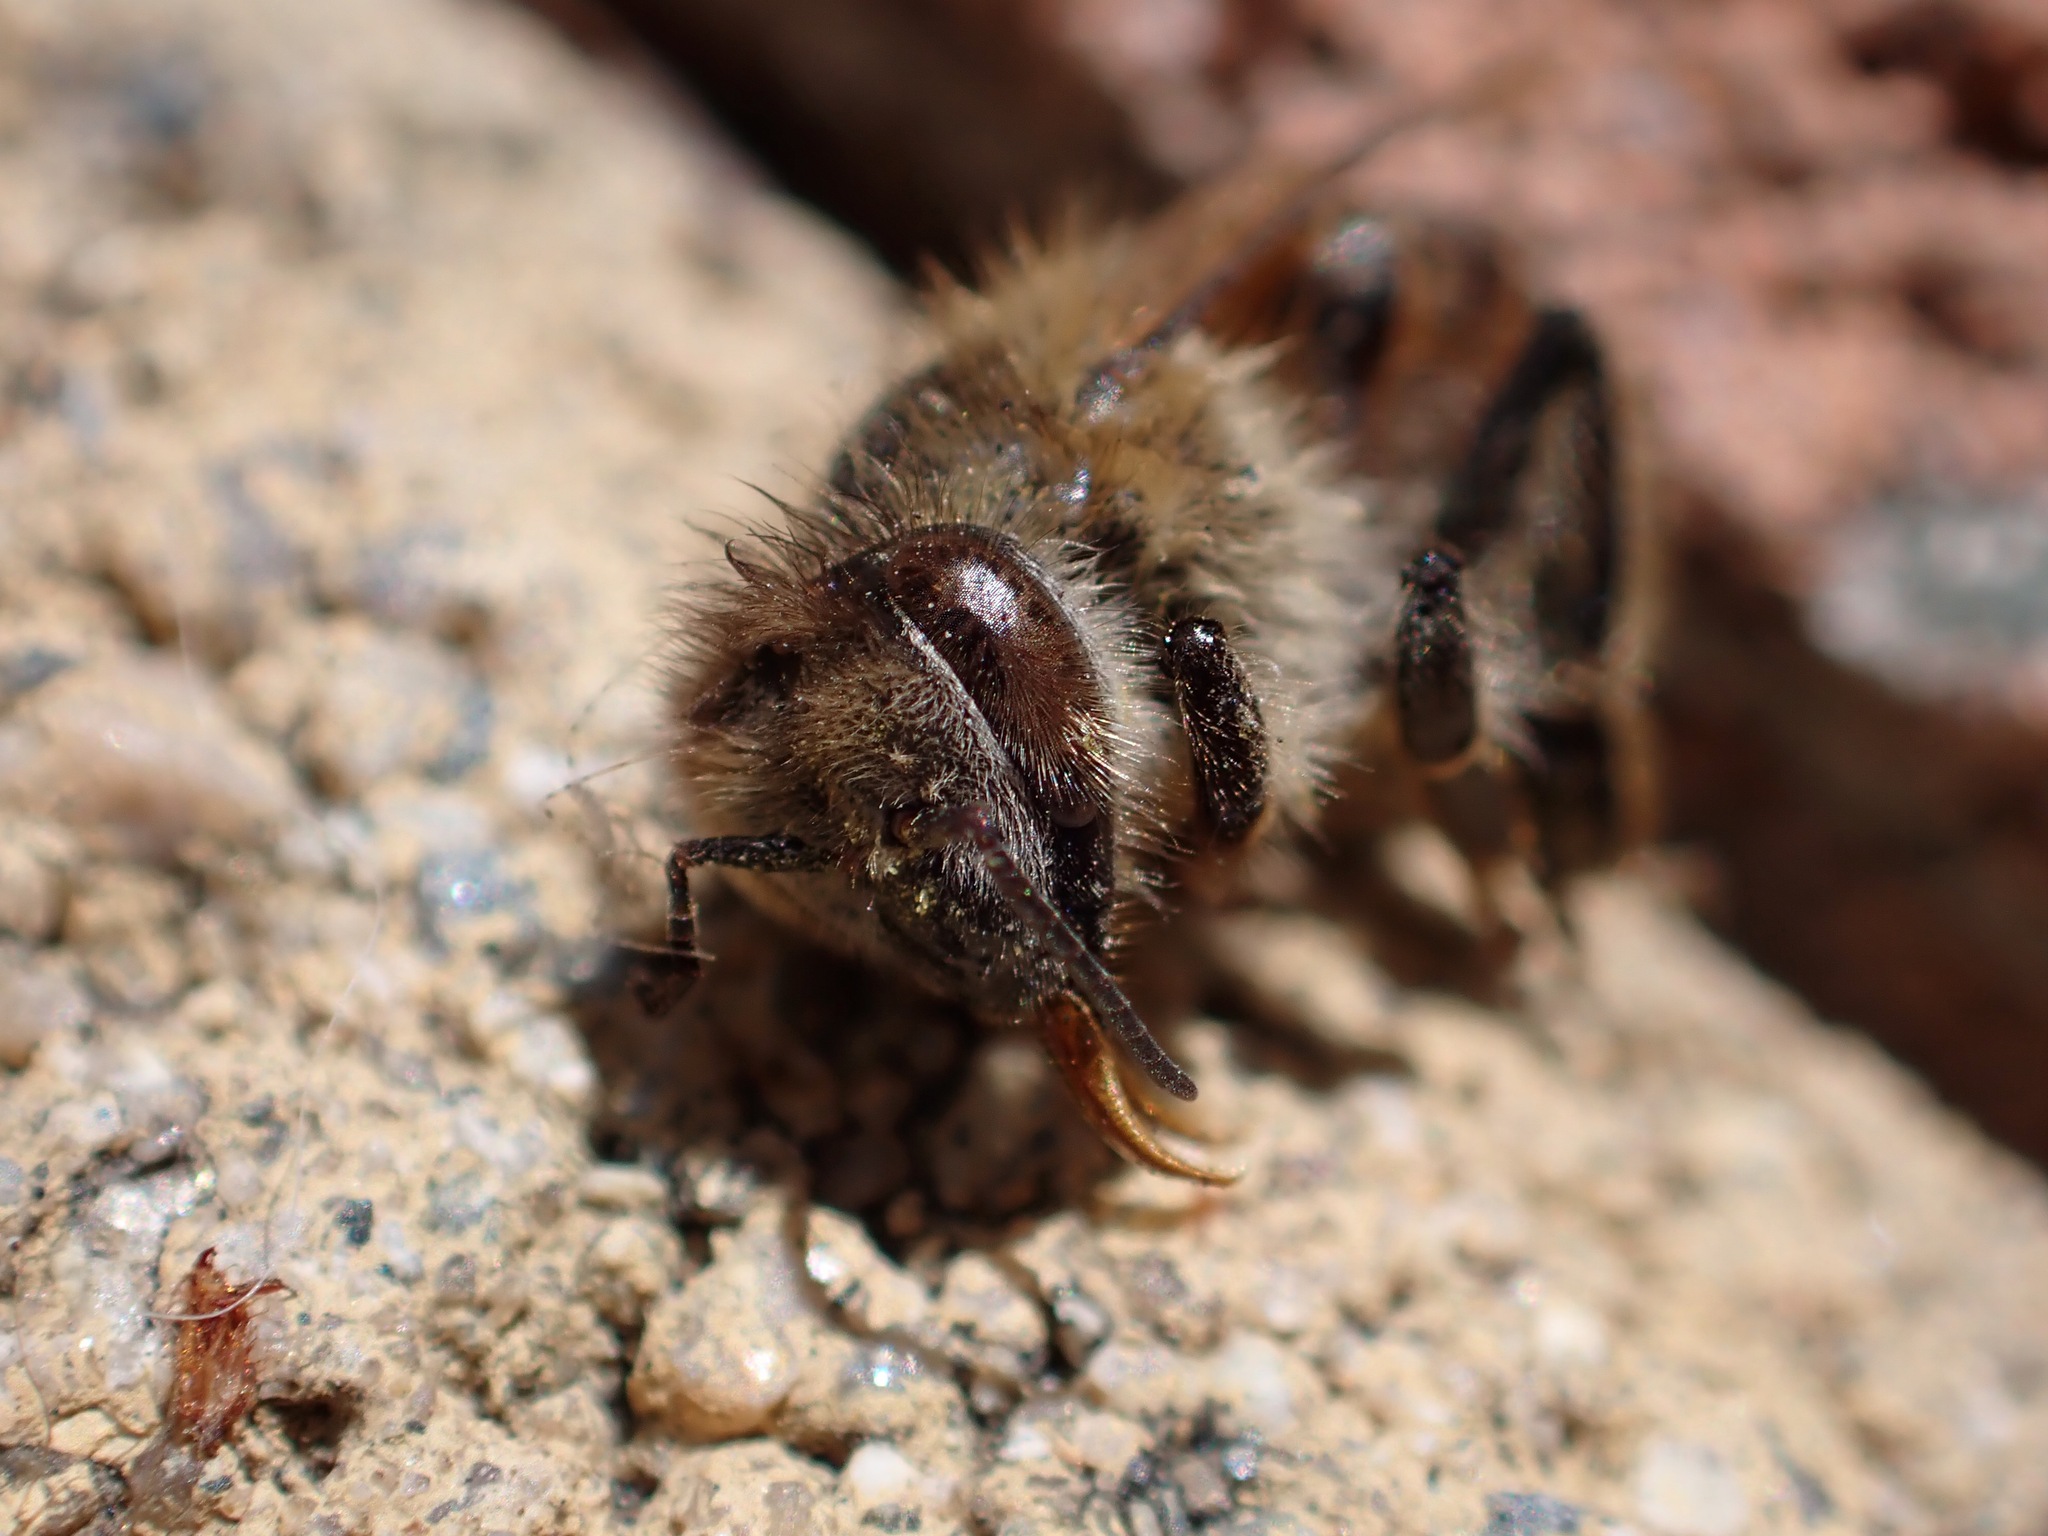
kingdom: Animalia
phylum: Arthropoda
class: Insecta
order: Hymenoptera
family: Apidae
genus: Apis
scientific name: Apis mellifera
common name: Honey bee
